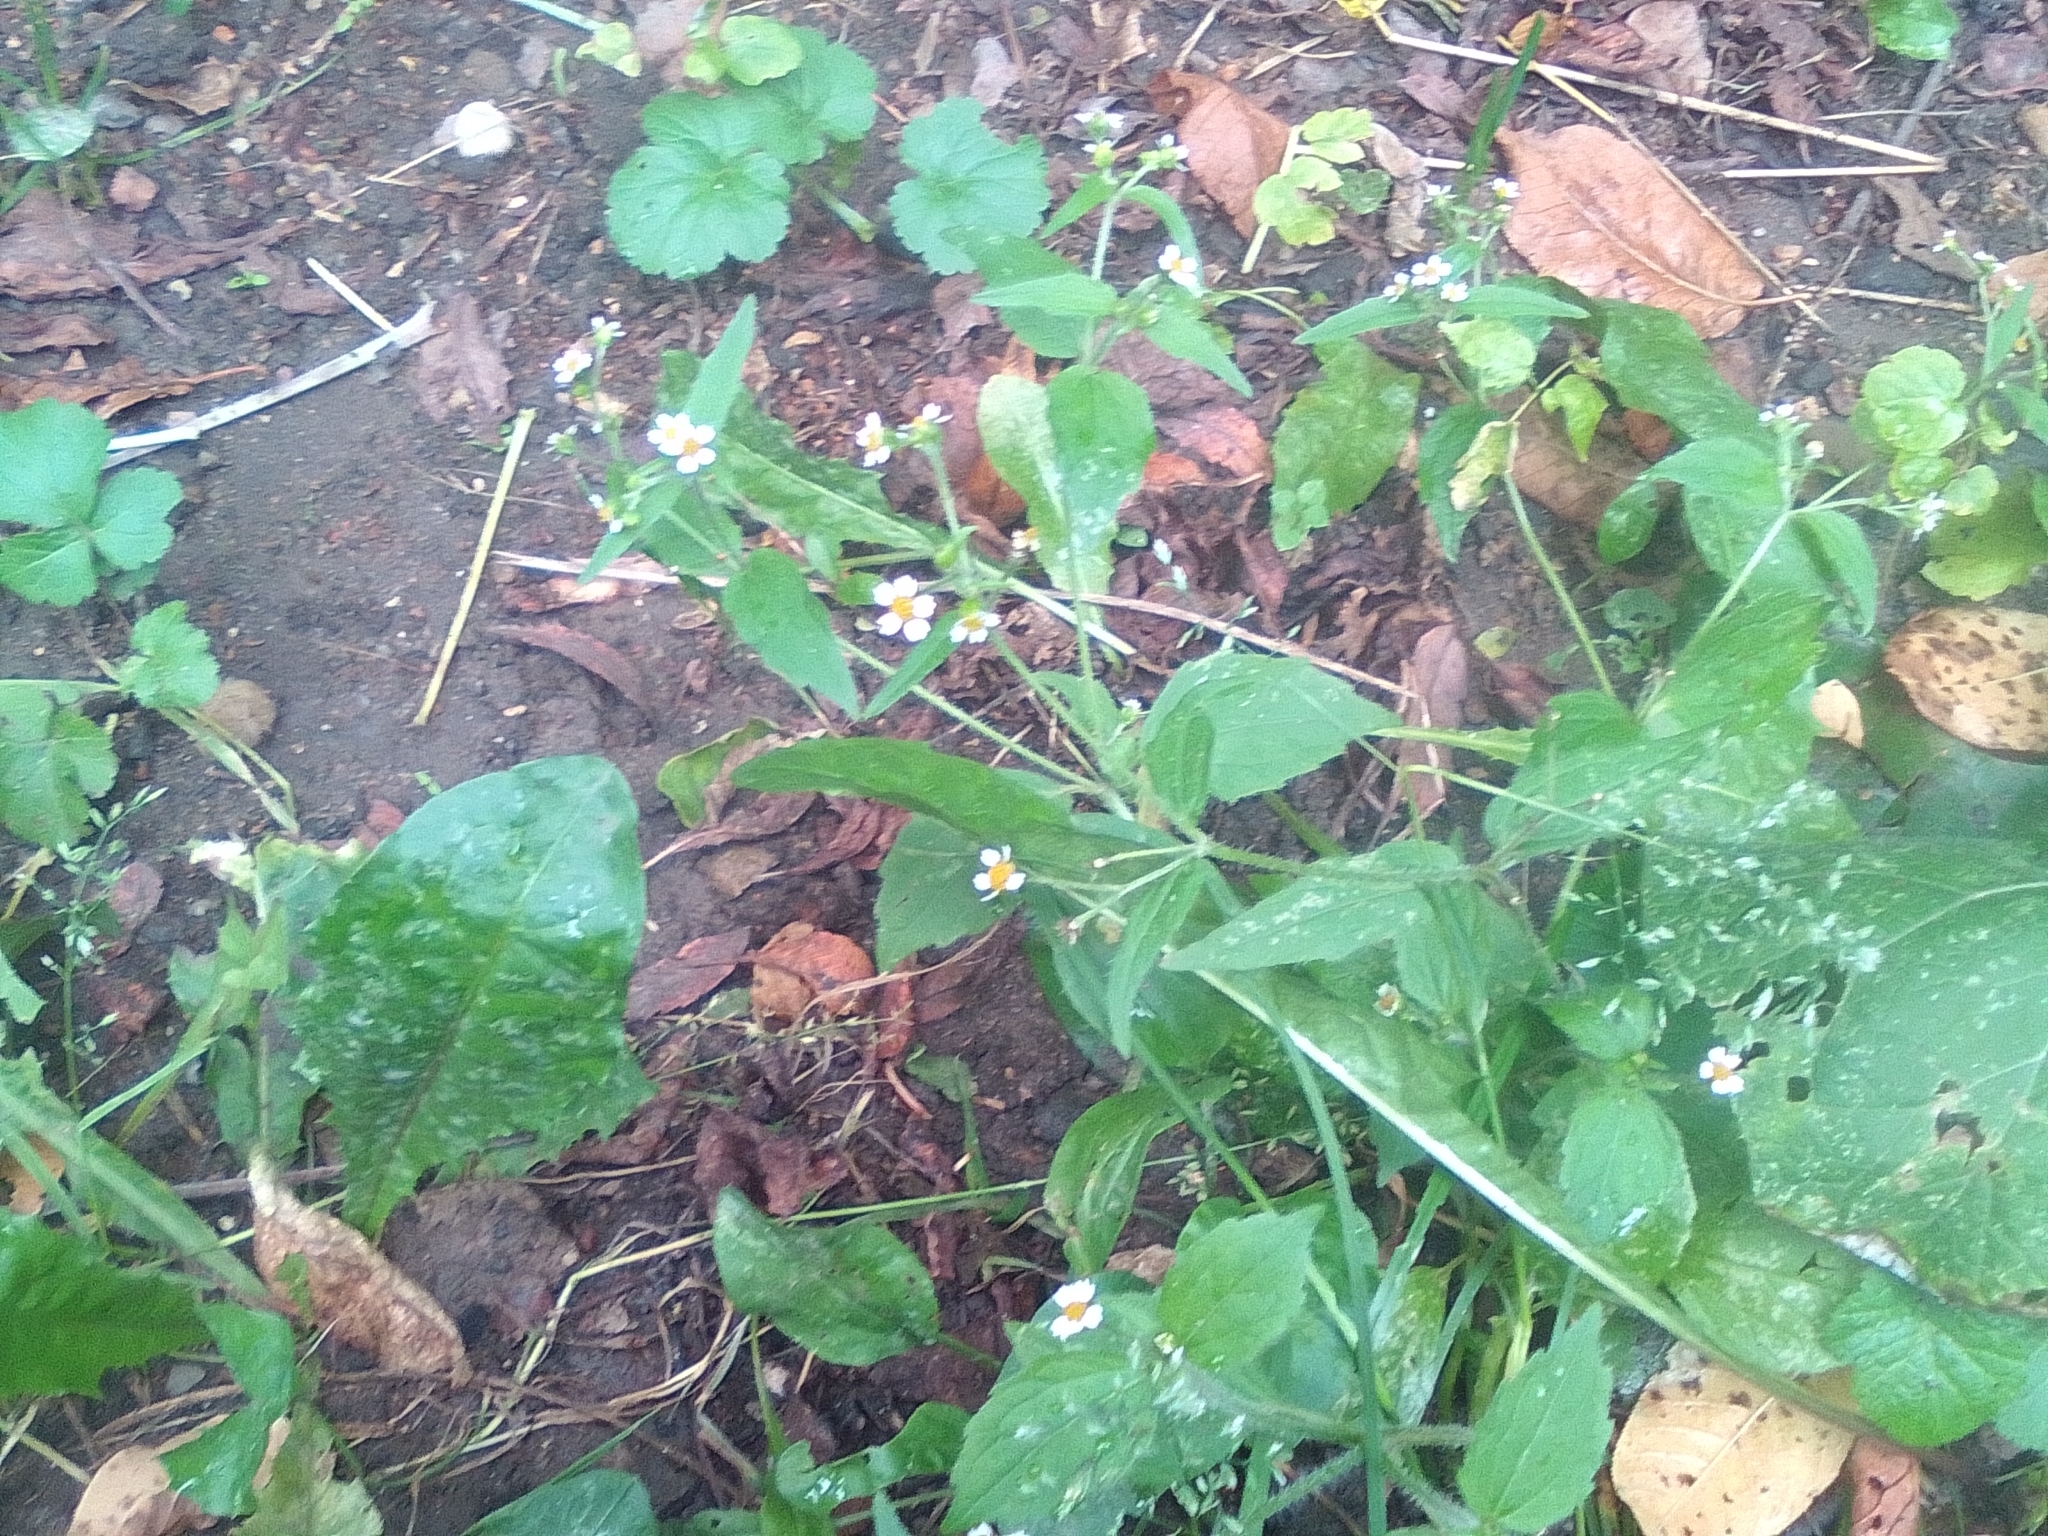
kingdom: Plantae
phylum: Tracheophyta
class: Magnoliopsida
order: Asterales
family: Asteraceae
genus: Galinsoga
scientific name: Galinsoga quadriradiata
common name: Shaggy soldier
